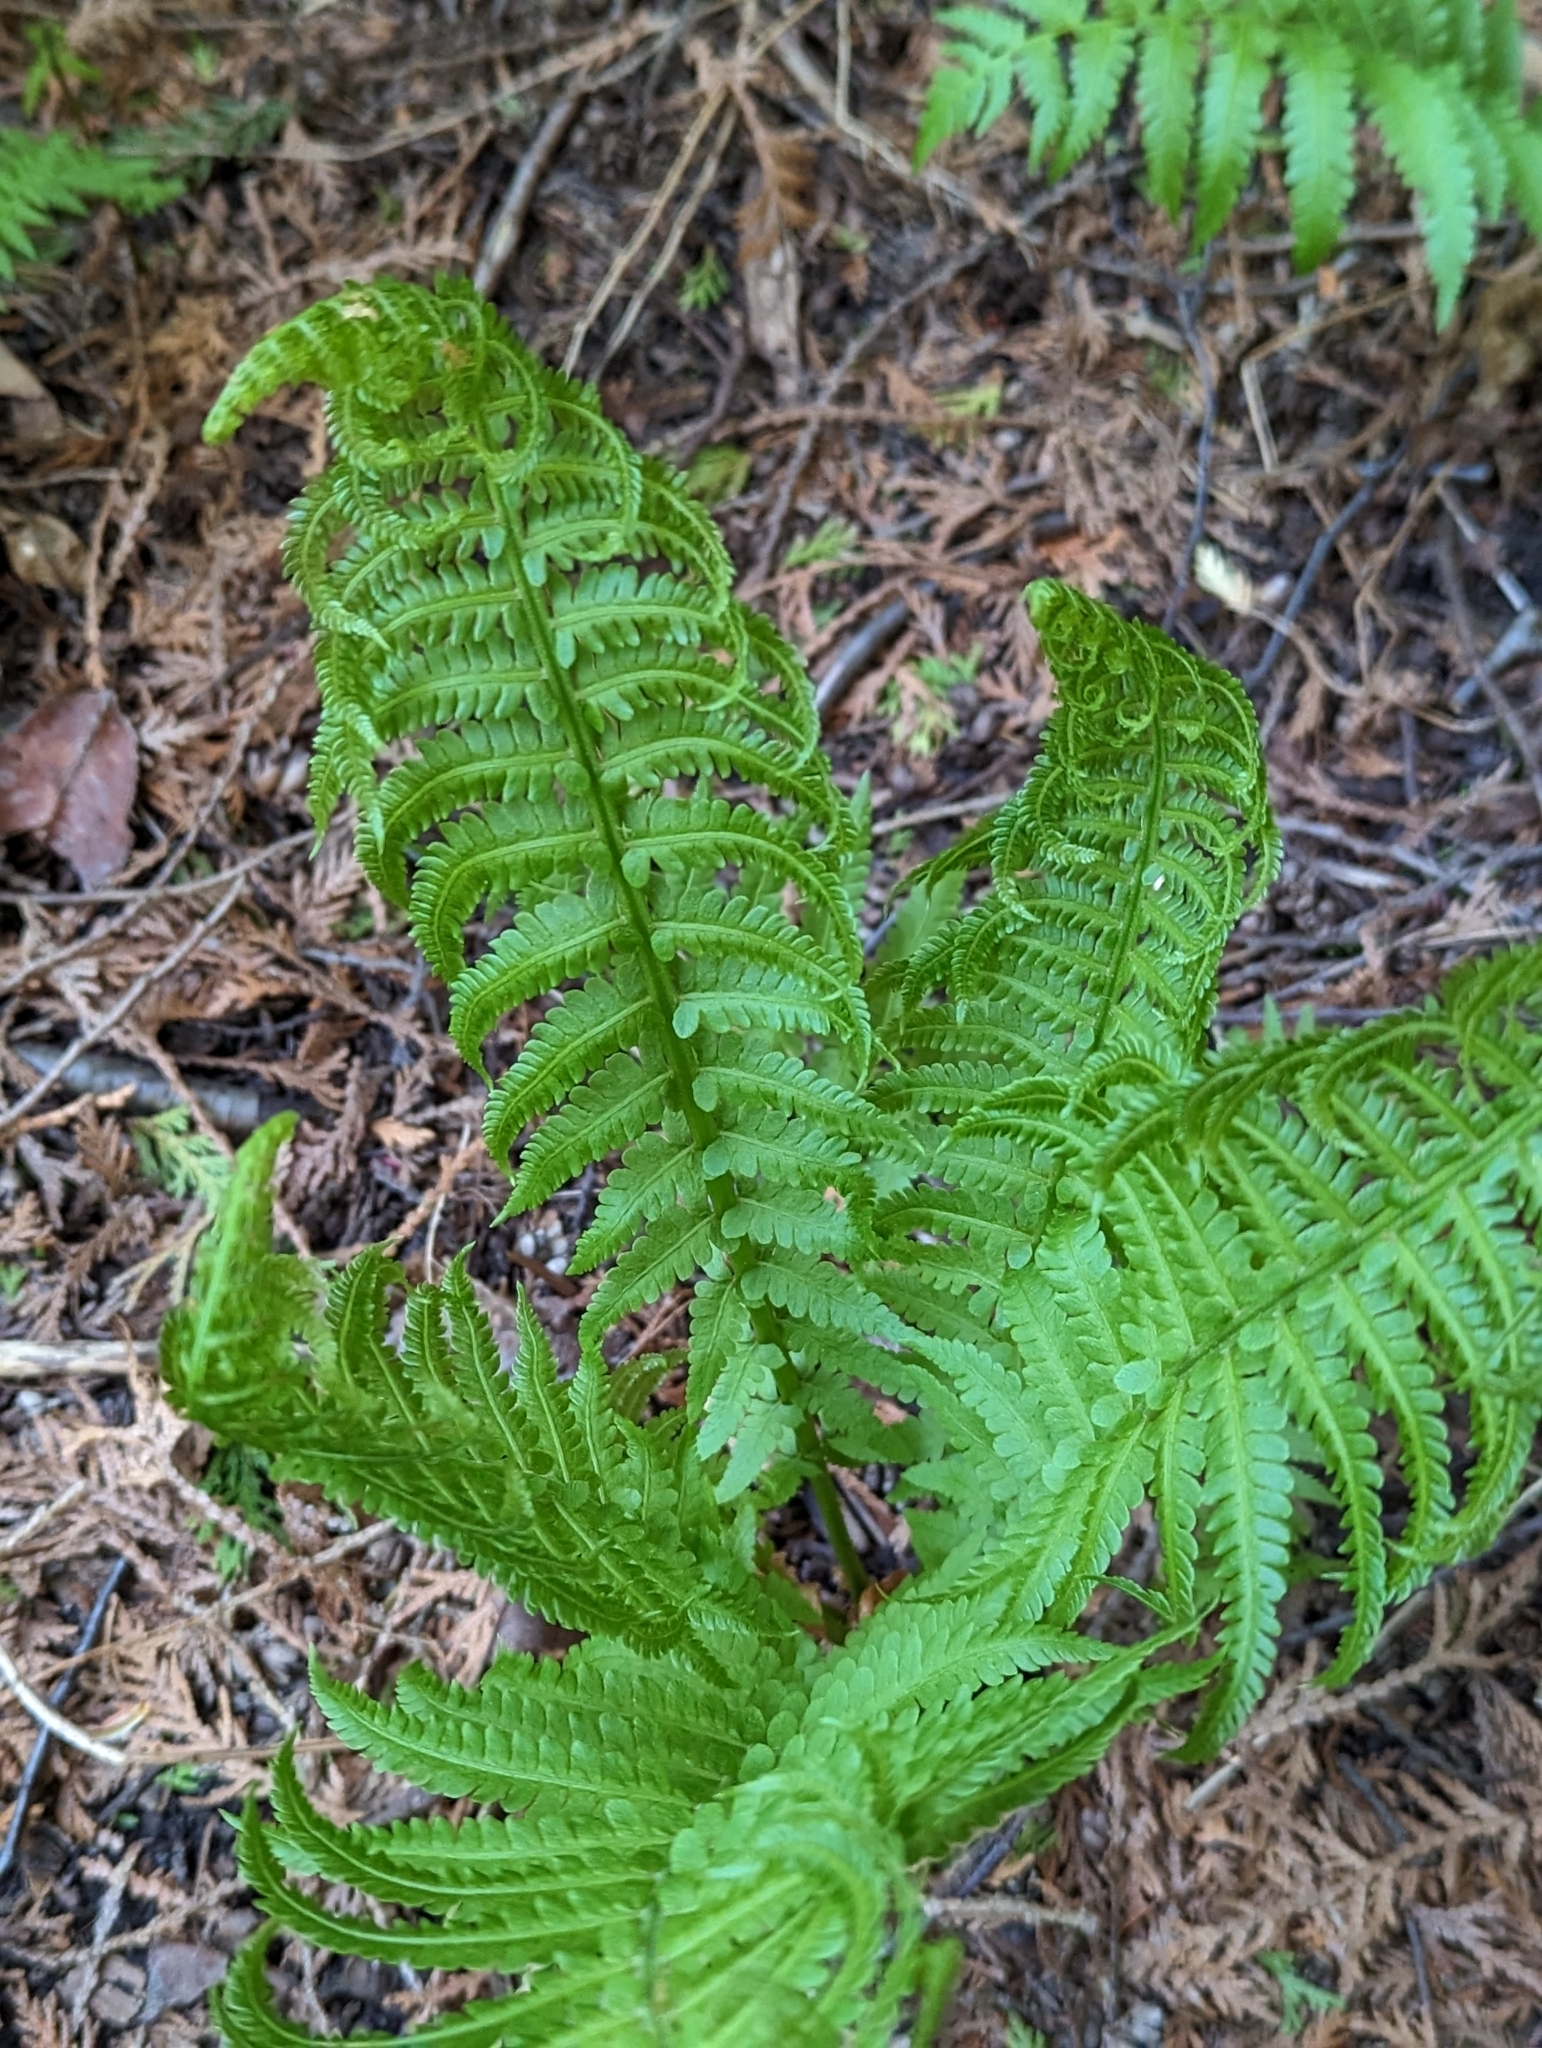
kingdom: Plantae
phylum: Tracheophyta
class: Polypodiopsida
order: Polypodiales
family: Onocleaceae
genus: Matteuccia
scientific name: Matteuccia struthiopteris
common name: Ostrich fern
